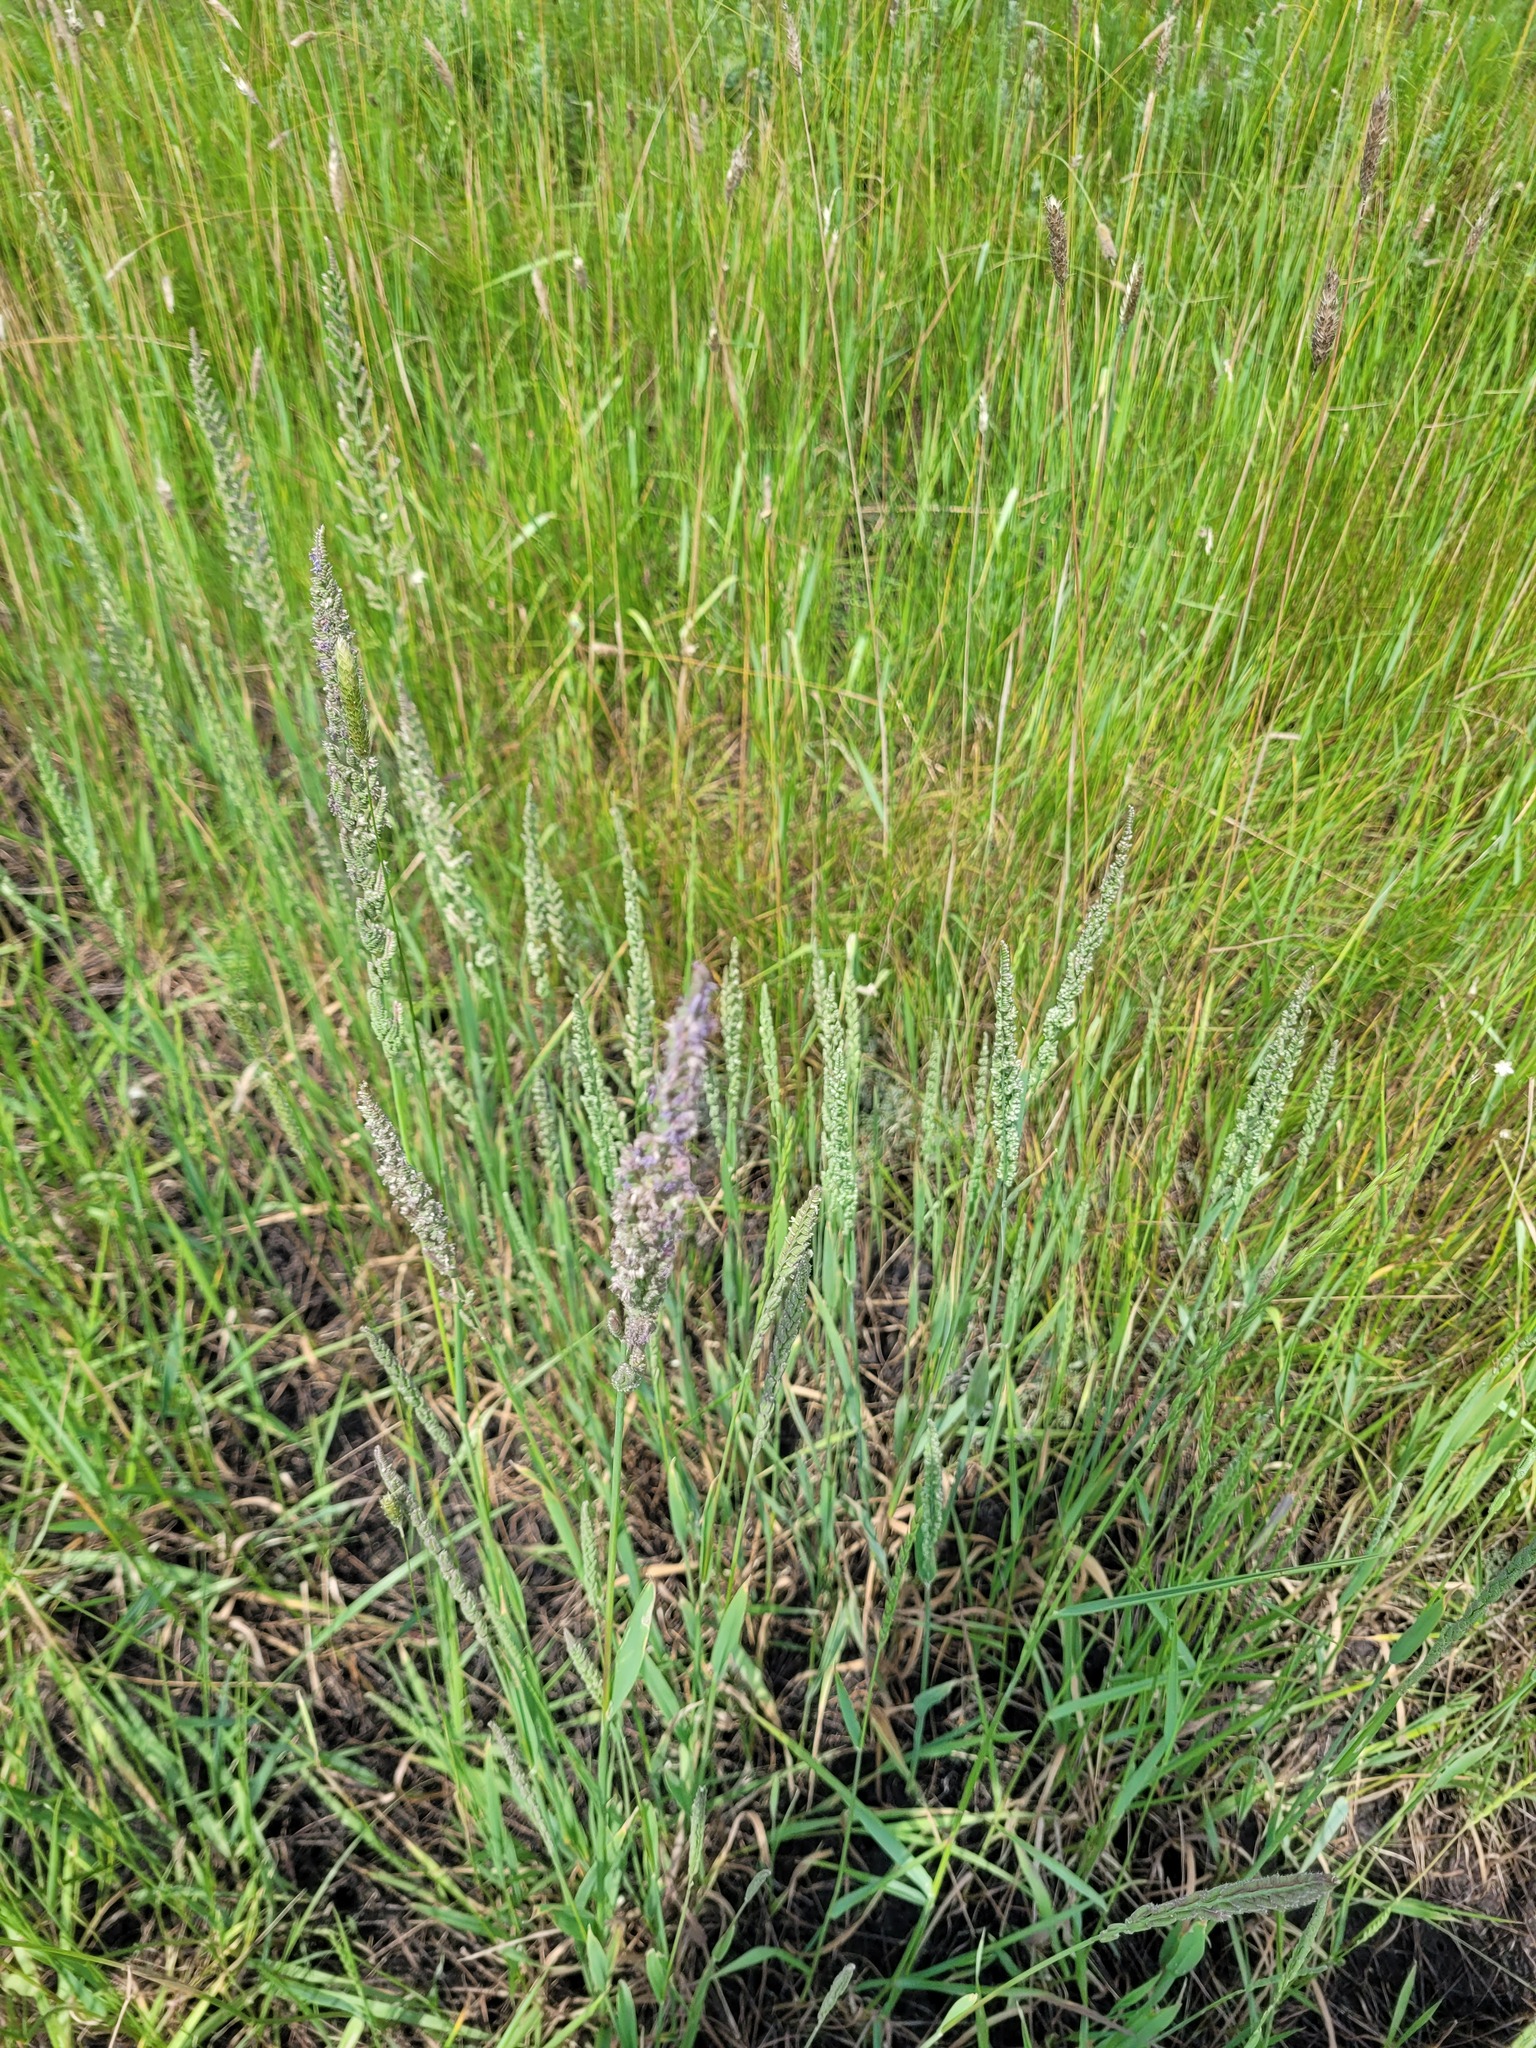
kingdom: Plantae
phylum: Tracheophyta
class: Liliopsida
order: Poales
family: Poaceae
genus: Beckmannia
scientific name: Beckmannia eruciformis
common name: European slough-grass
